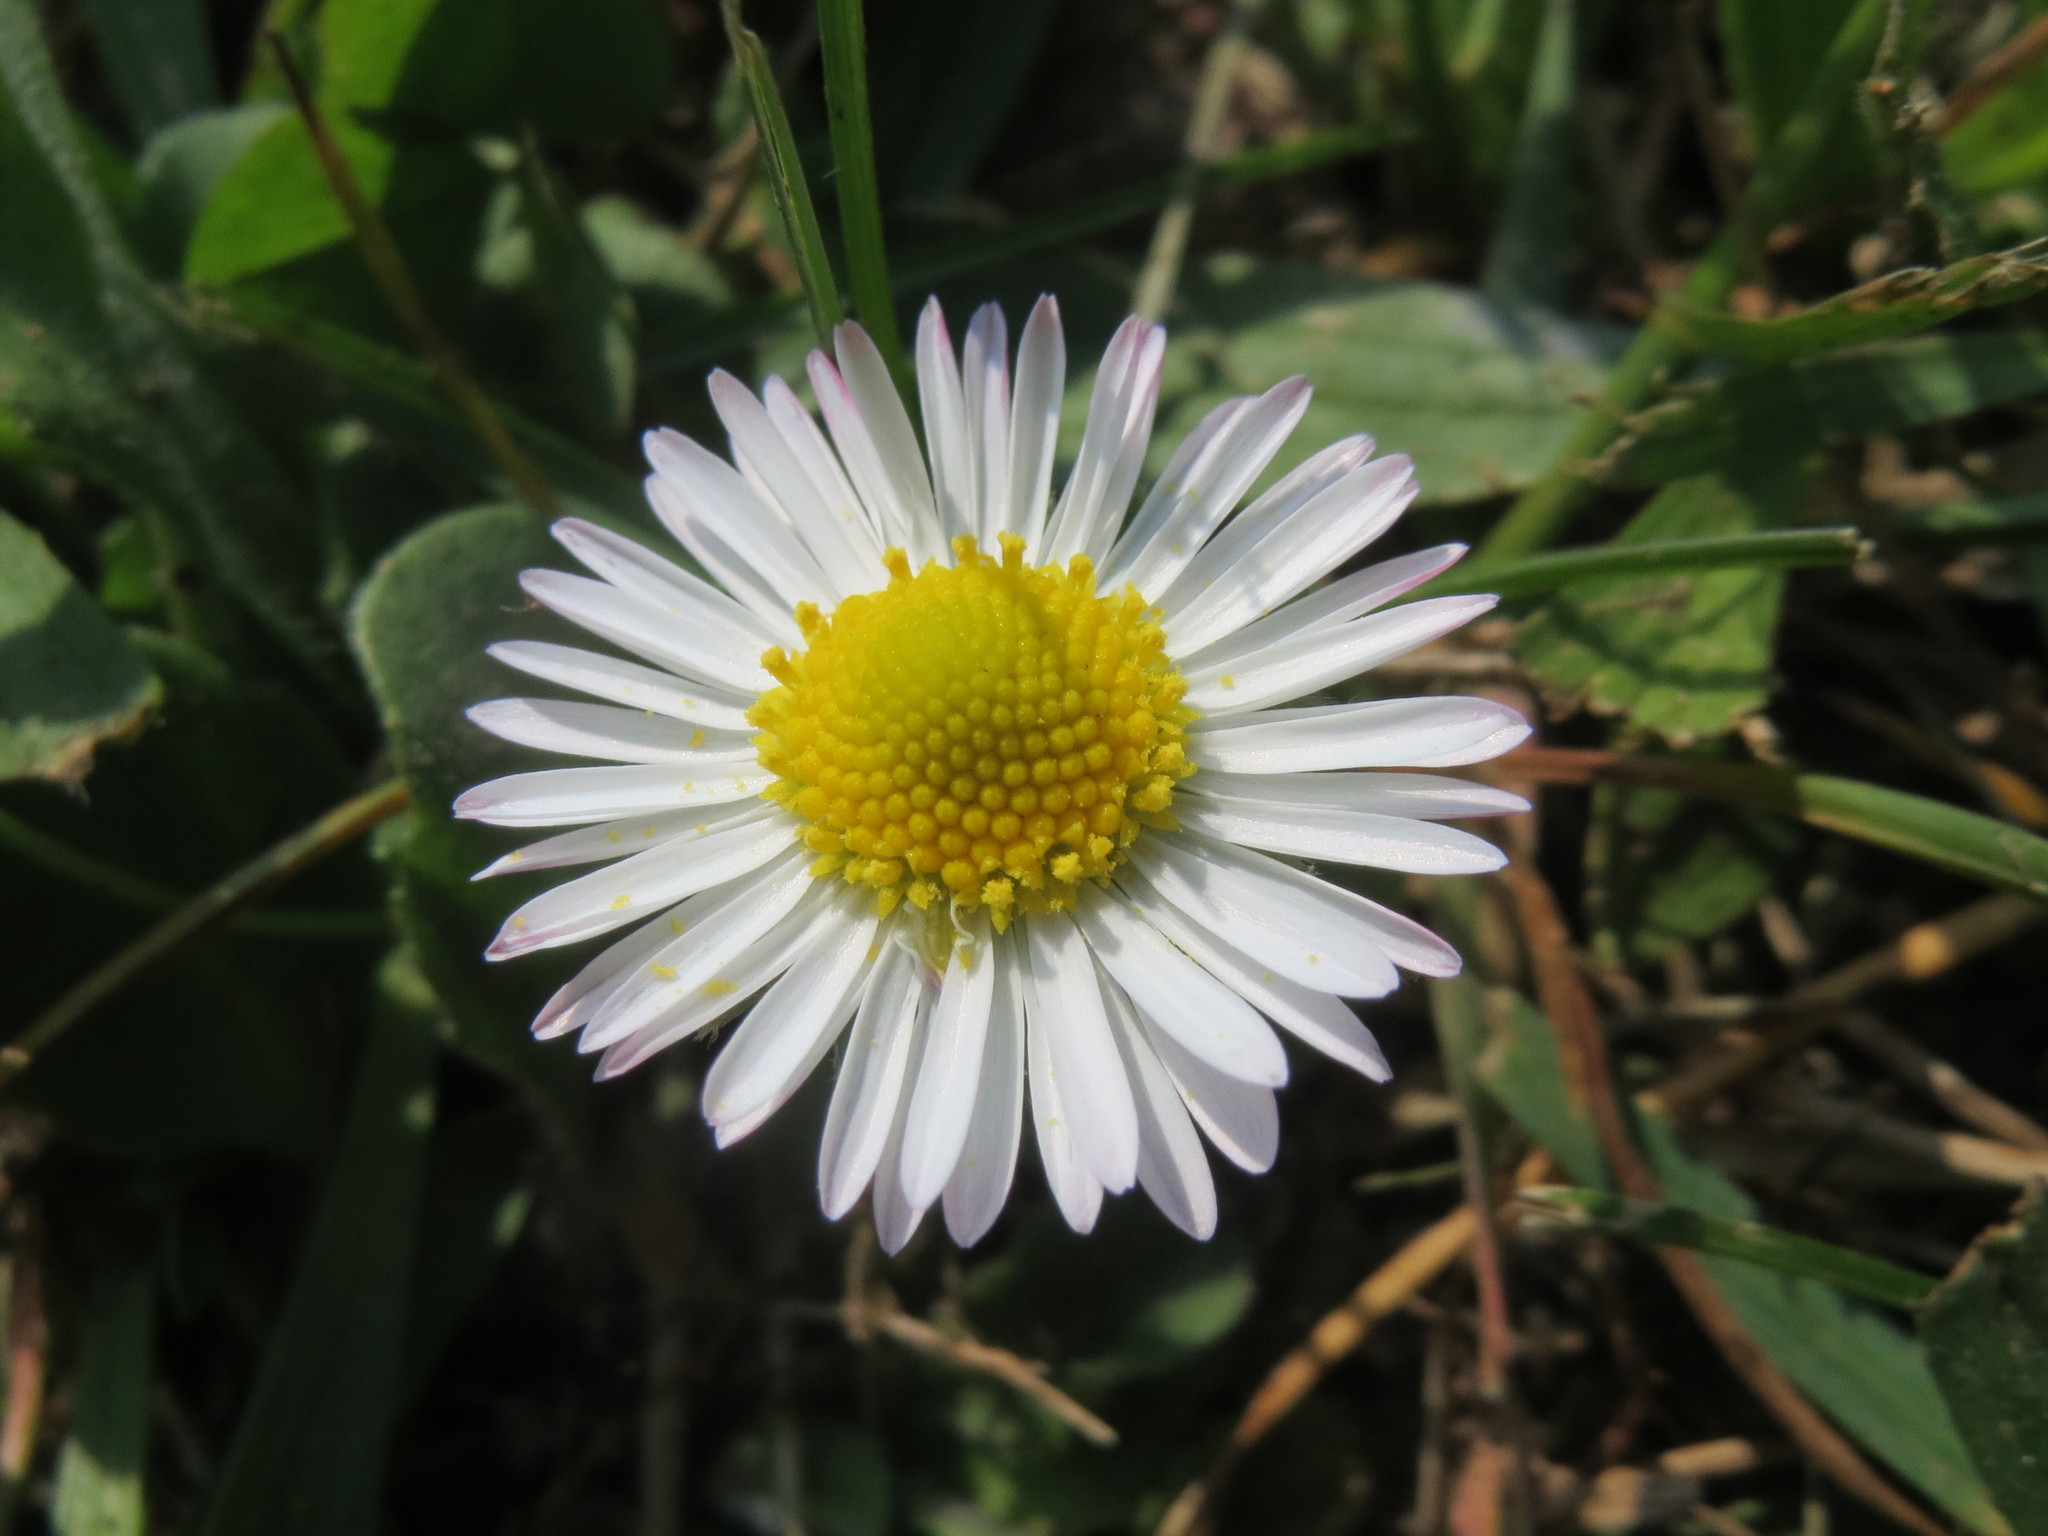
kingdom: Plantae
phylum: Tracheophyta
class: Magnoliopsida
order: Asterales
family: Asteraceae
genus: Bellis
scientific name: Bellis perennis
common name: Lawndaisy
